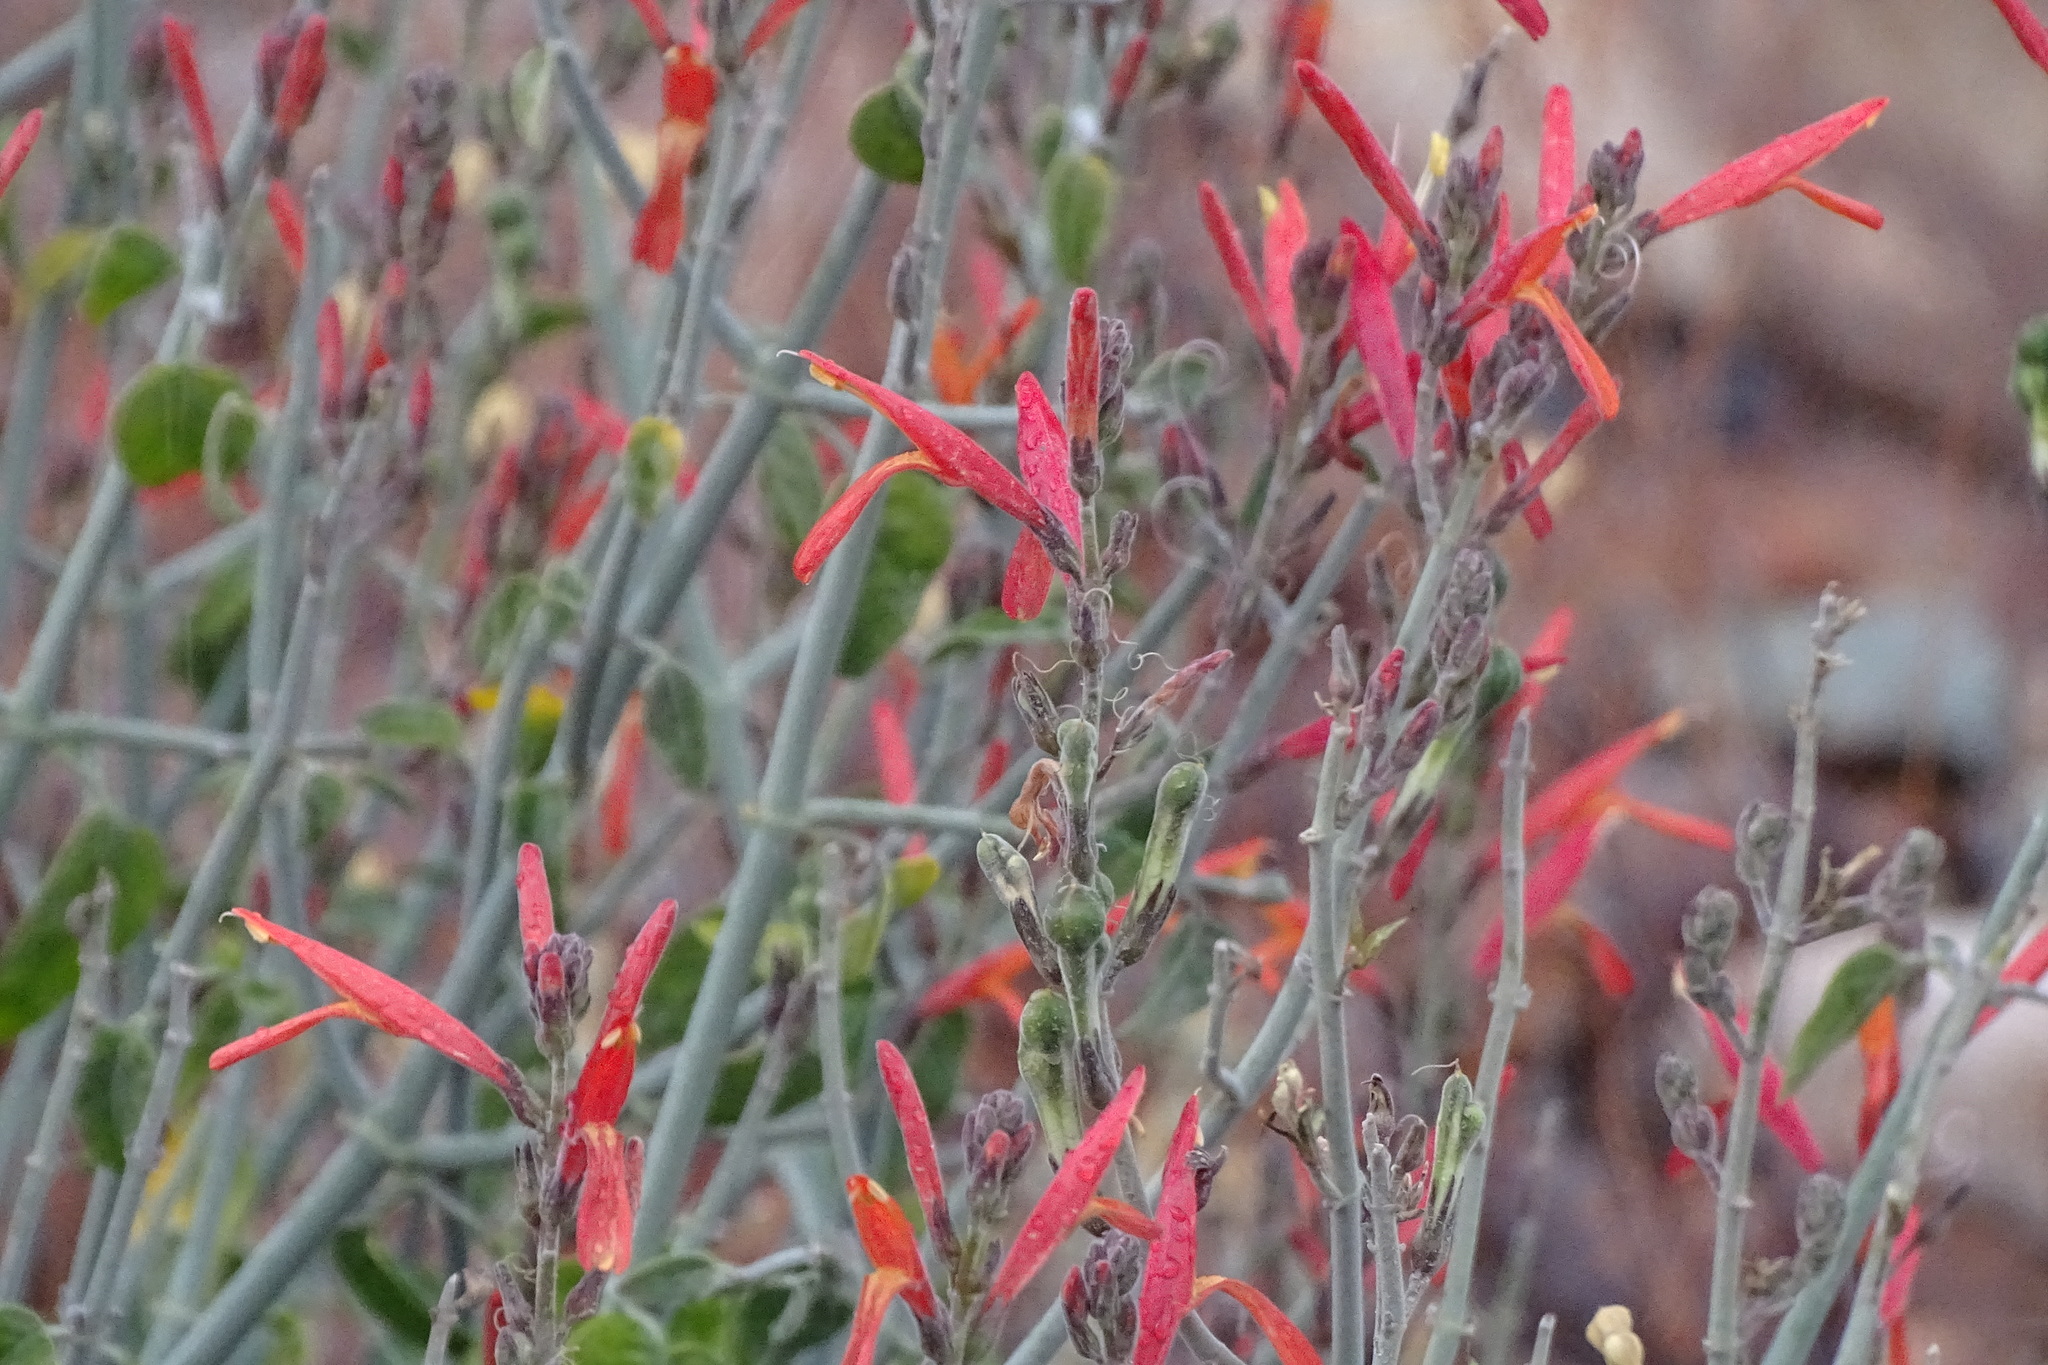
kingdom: Plantae
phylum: Tracheophyta
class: Magnoliopsida
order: Lamiales
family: Acanthaceae
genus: Justicia
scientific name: Justicia californica
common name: Chuparosa-honeysuckle
